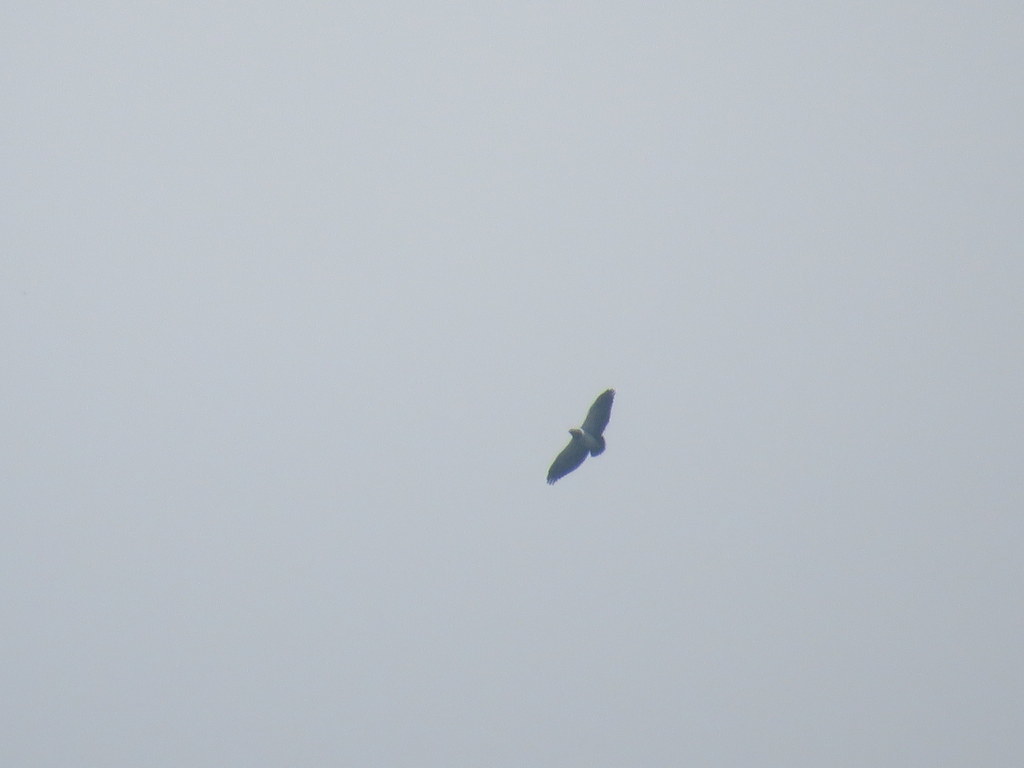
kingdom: Animalia
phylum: Chordata
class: Aves
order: Accipitriformes
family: Accipitridae
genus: Geranoaetus
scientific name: Geranoaetus melanoleucus
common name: Black-chested buzzard-eagle
